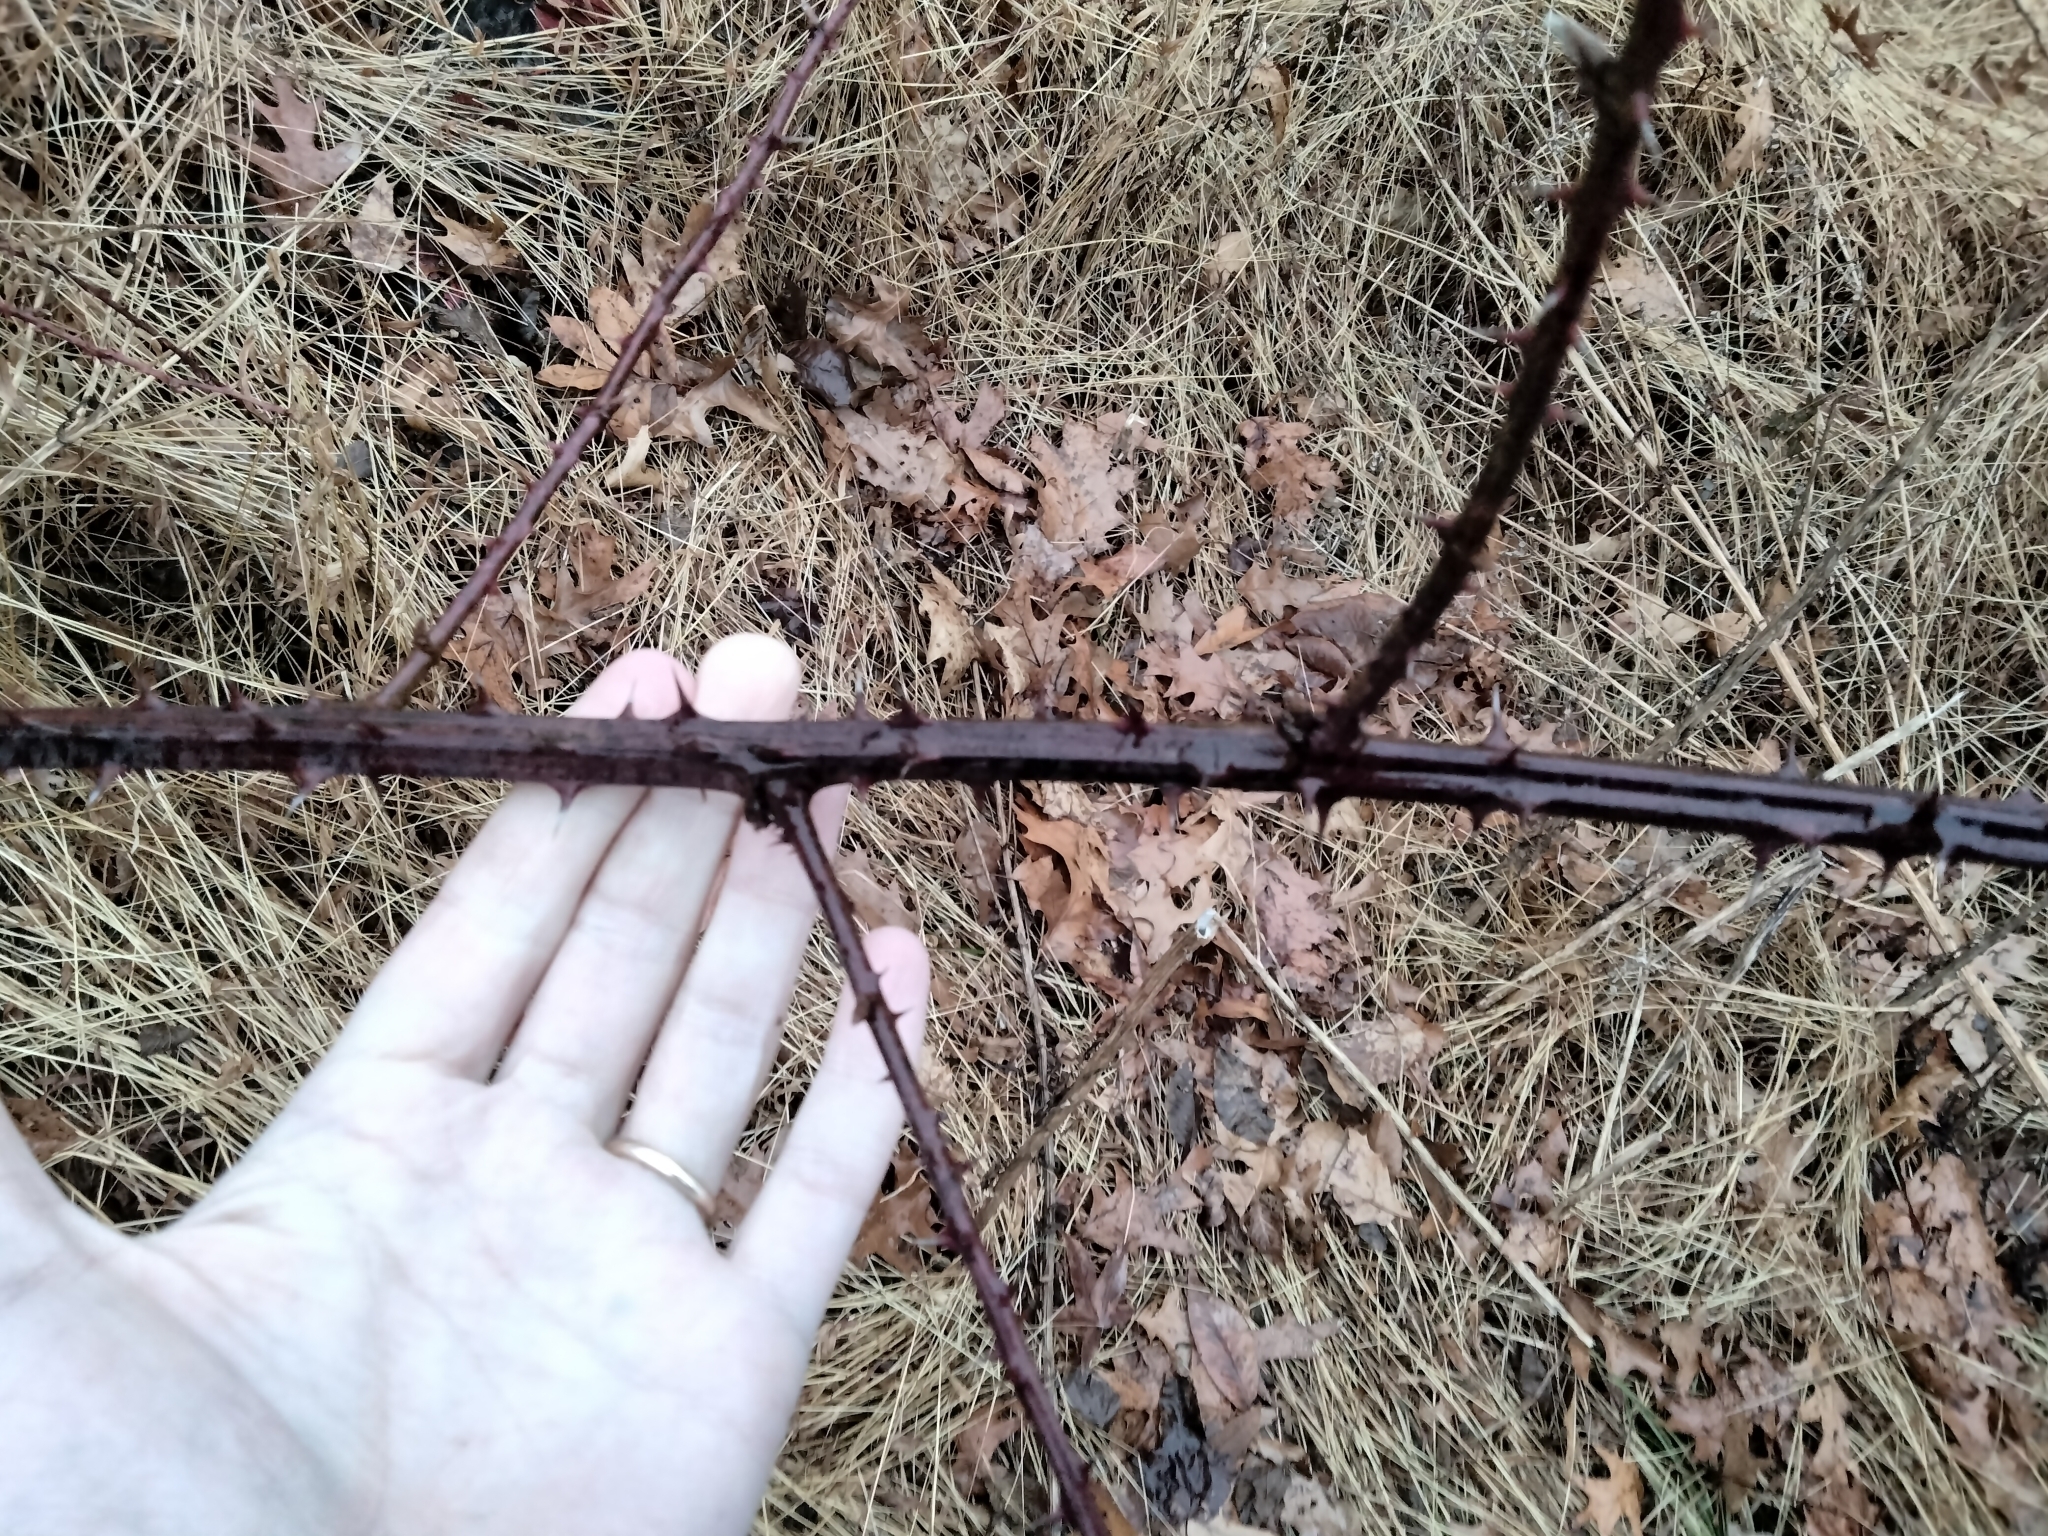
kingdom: Plantae
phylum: Tracheophyta
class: Magnoliopsida
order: Rosales
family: Rosaceae
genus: Rubus
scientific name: Rubus allegheniensis
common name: Allegheny blackberry
